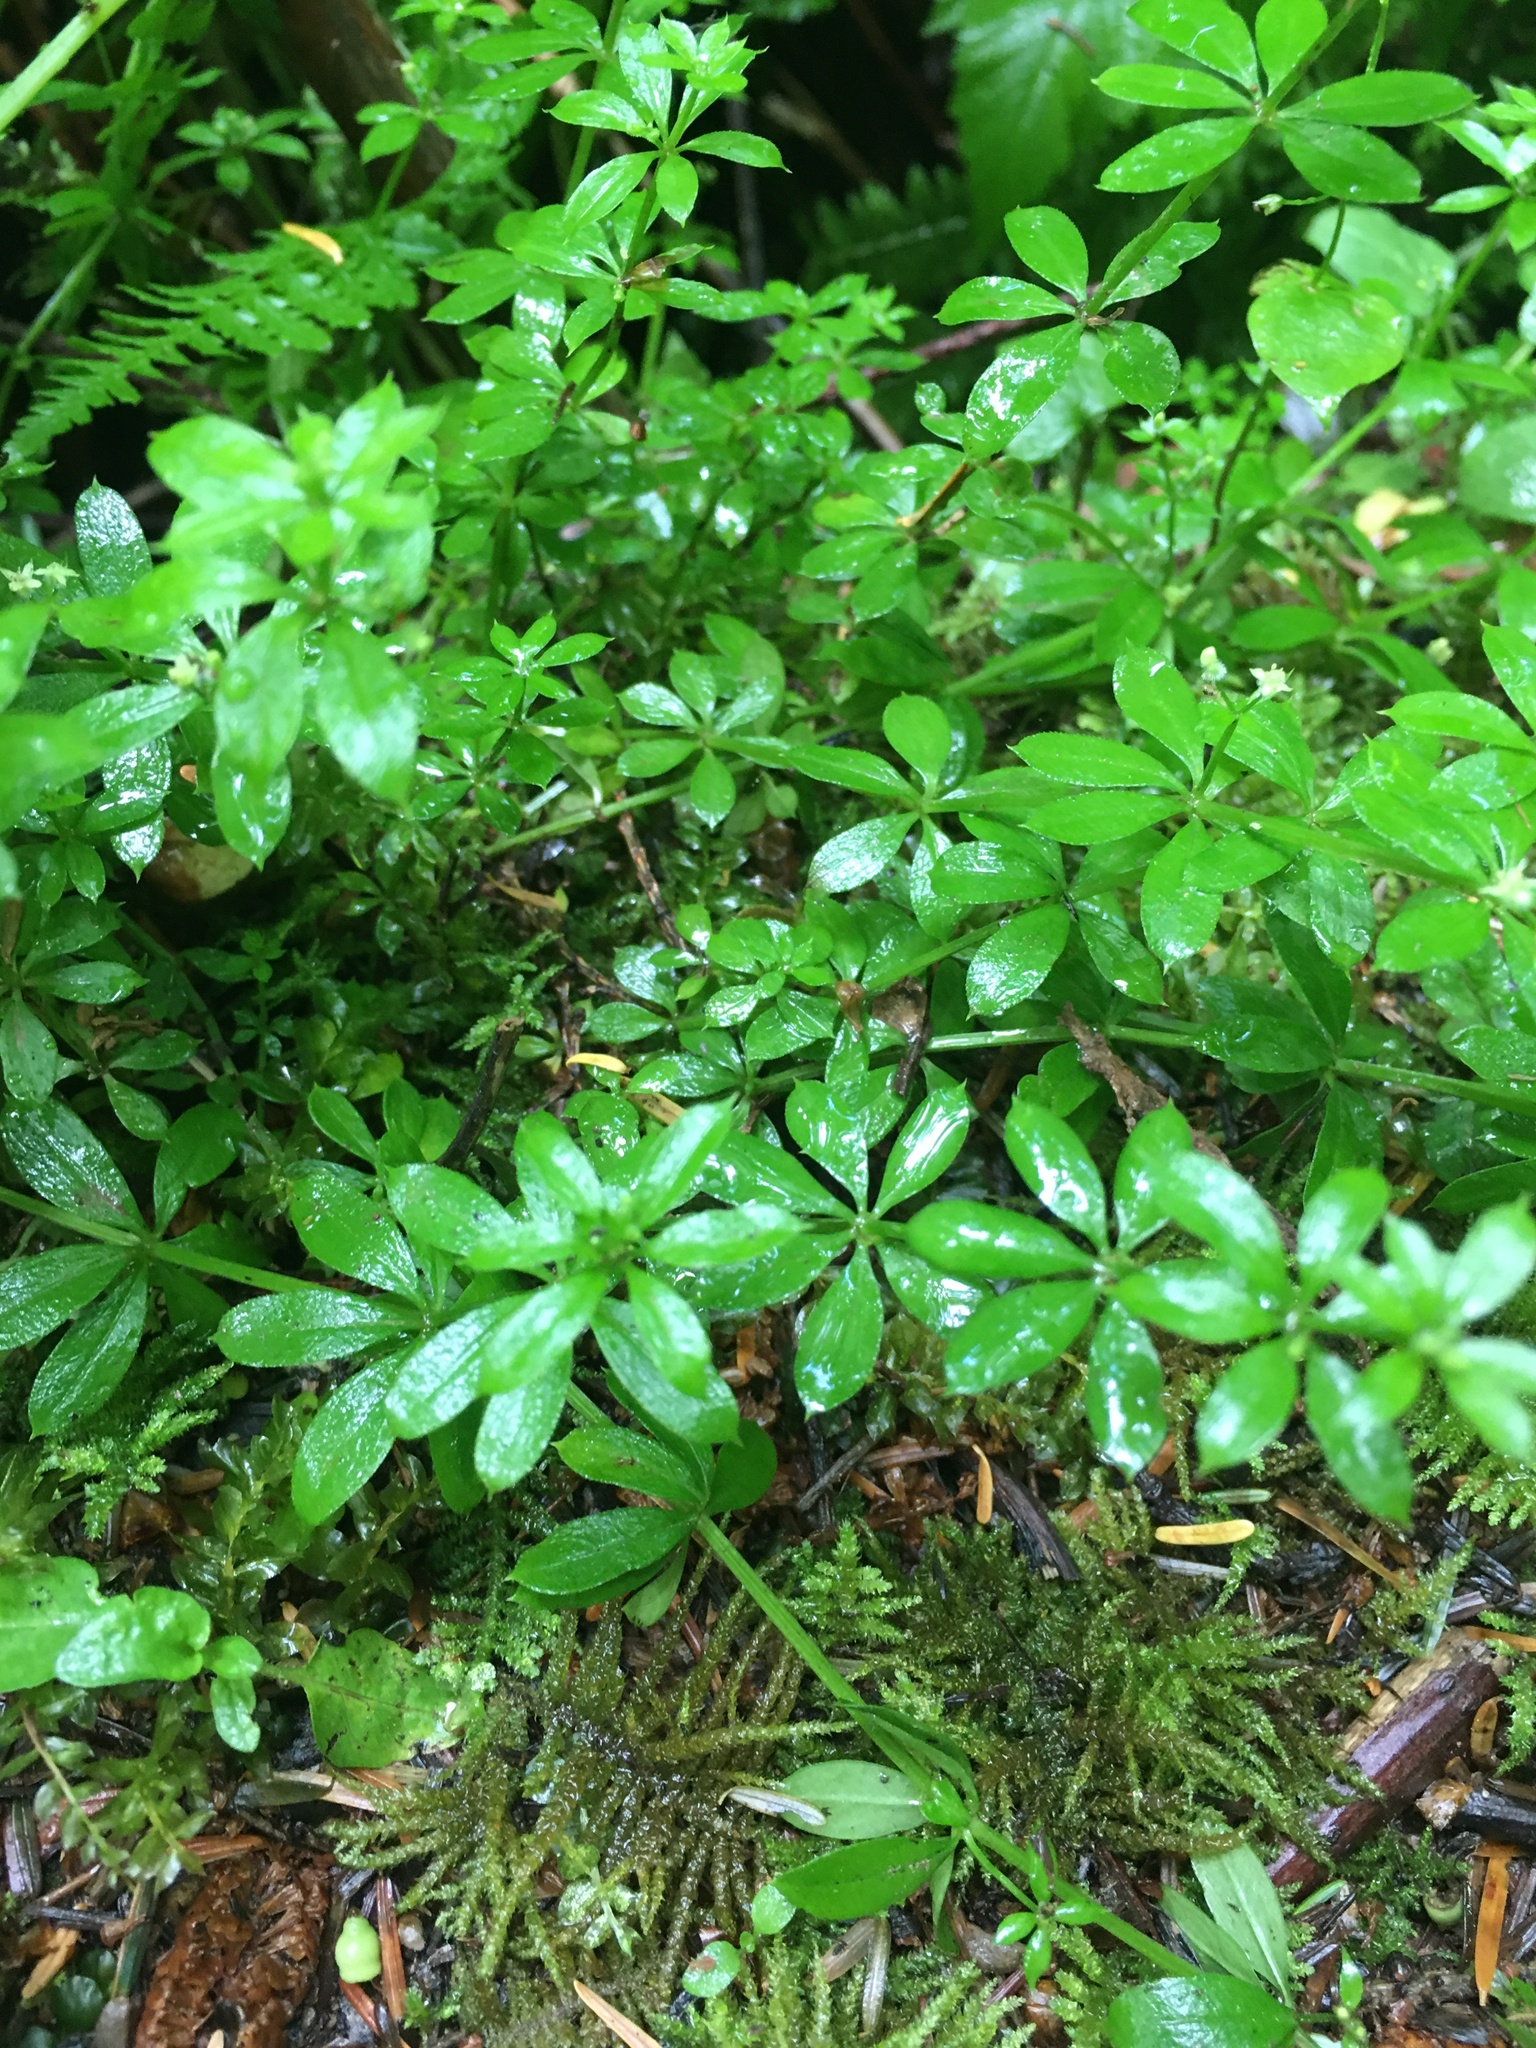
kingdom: Plantae
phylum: Tracheophyta
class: Magnoliopsida
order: Gentianales
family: Rubiaceae
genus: Galium
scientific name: Galium triflorum
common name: Fragrant bedstraw
